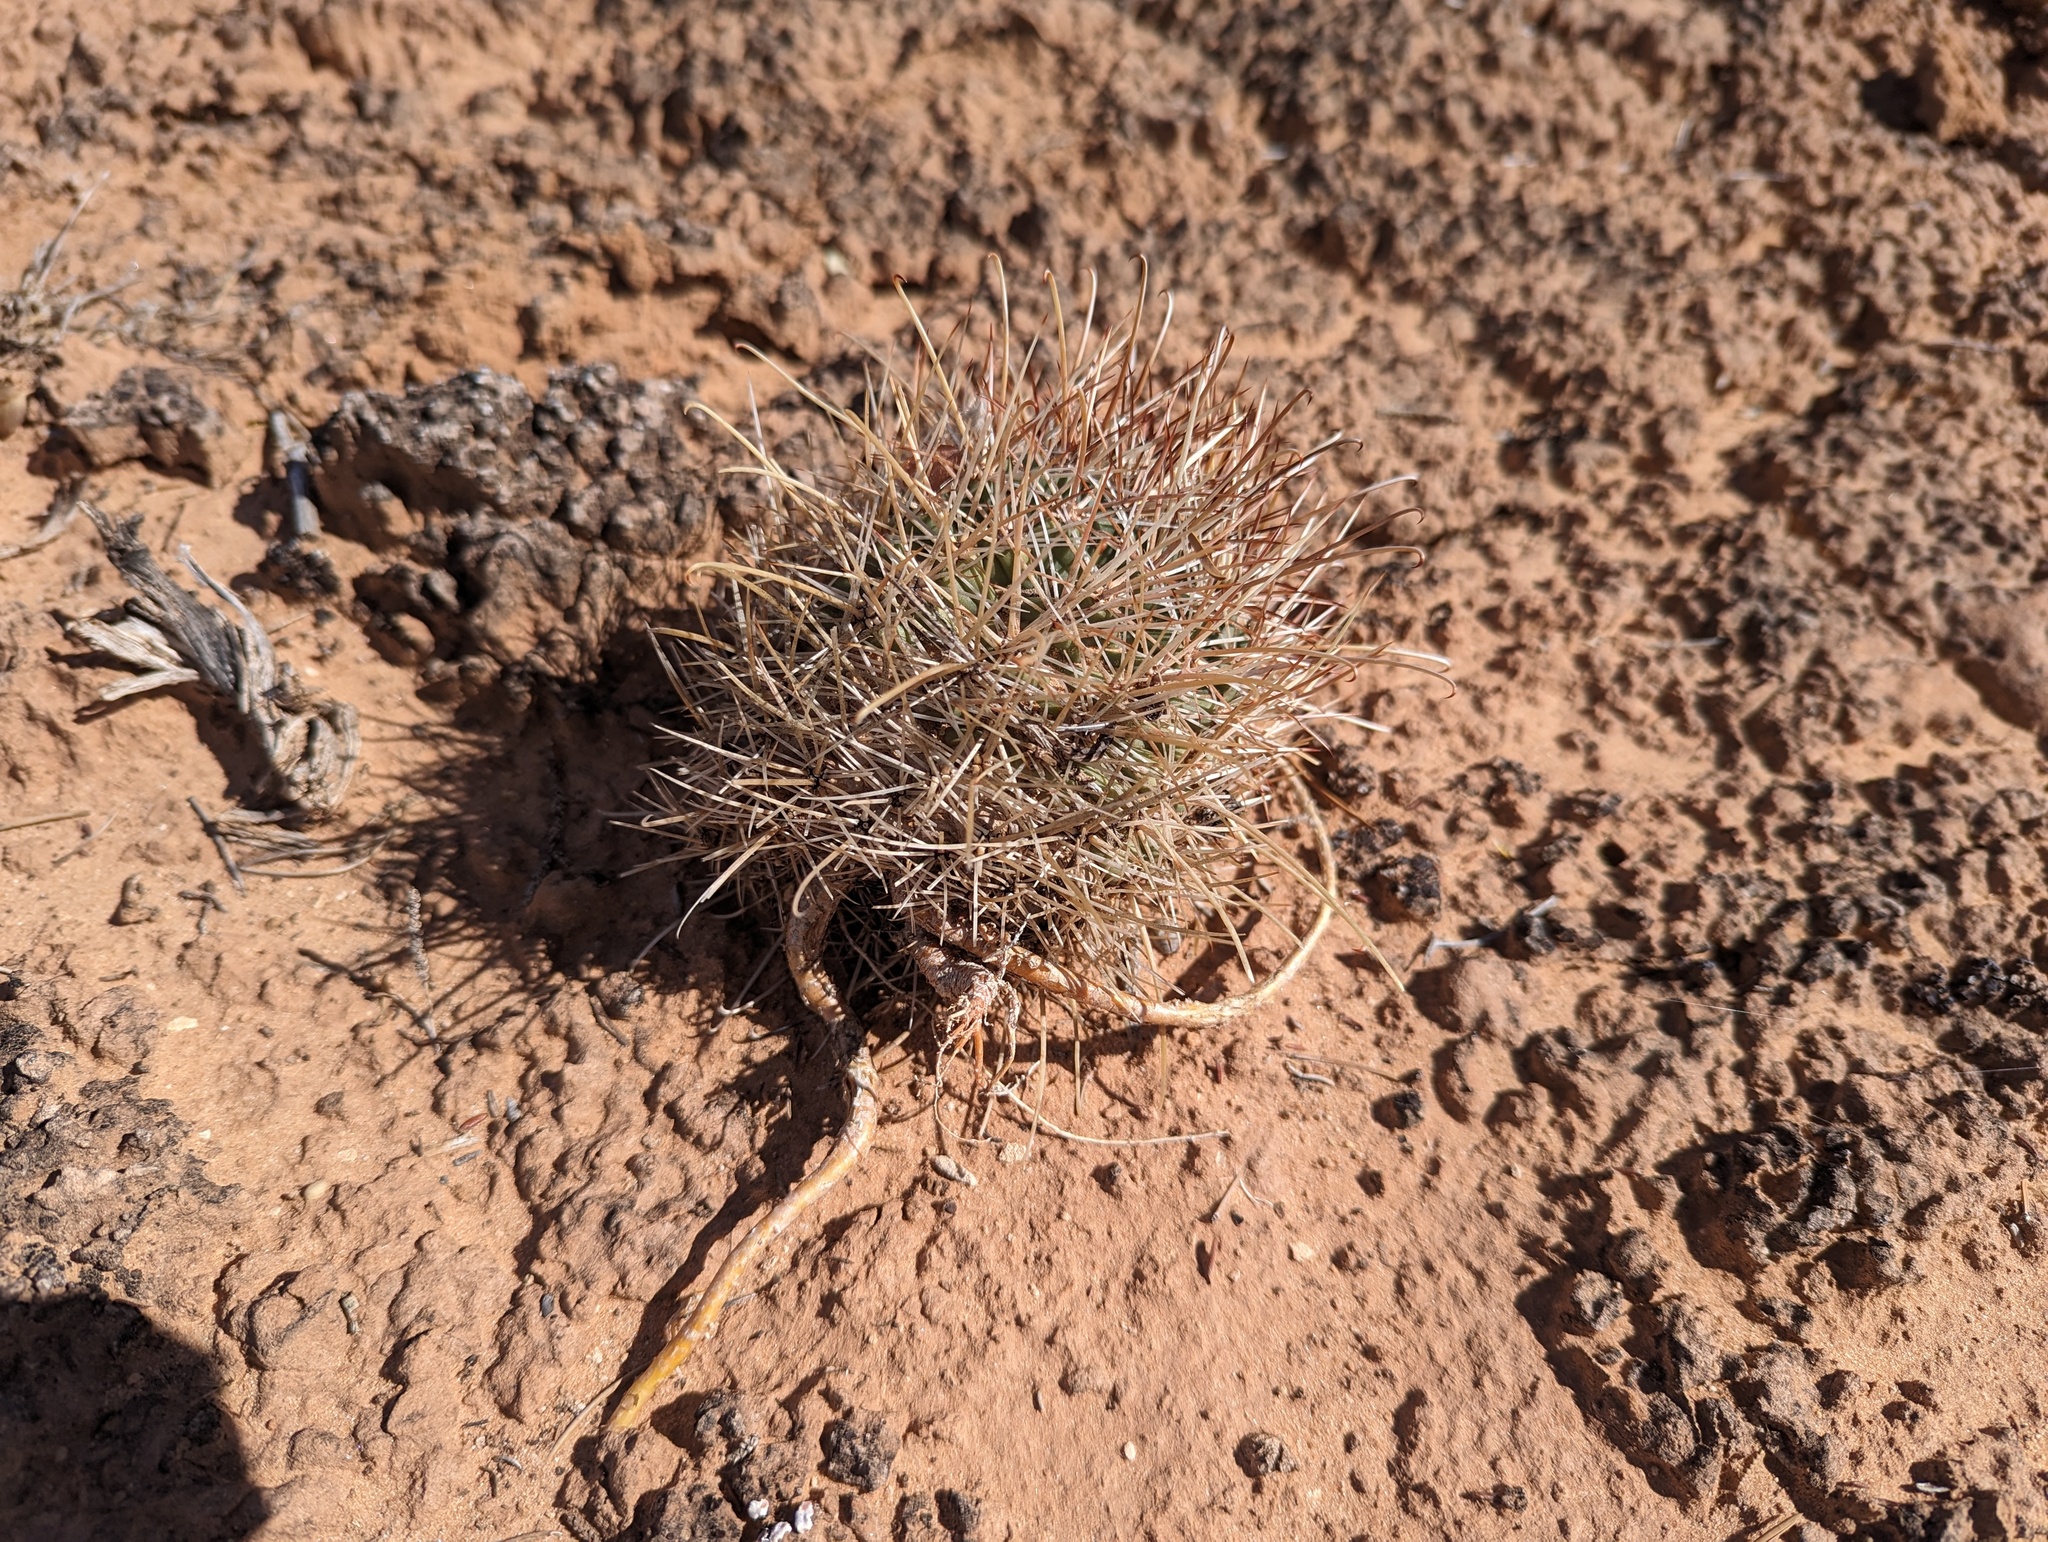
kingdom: Plantae
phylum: Tracheophyta
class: Magnoliopsida
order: Caryophyllales
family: Cactaceae
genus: Sclerocactus
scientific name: Sclerocactus parviflorus
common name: Small-flower fishhook cactus
